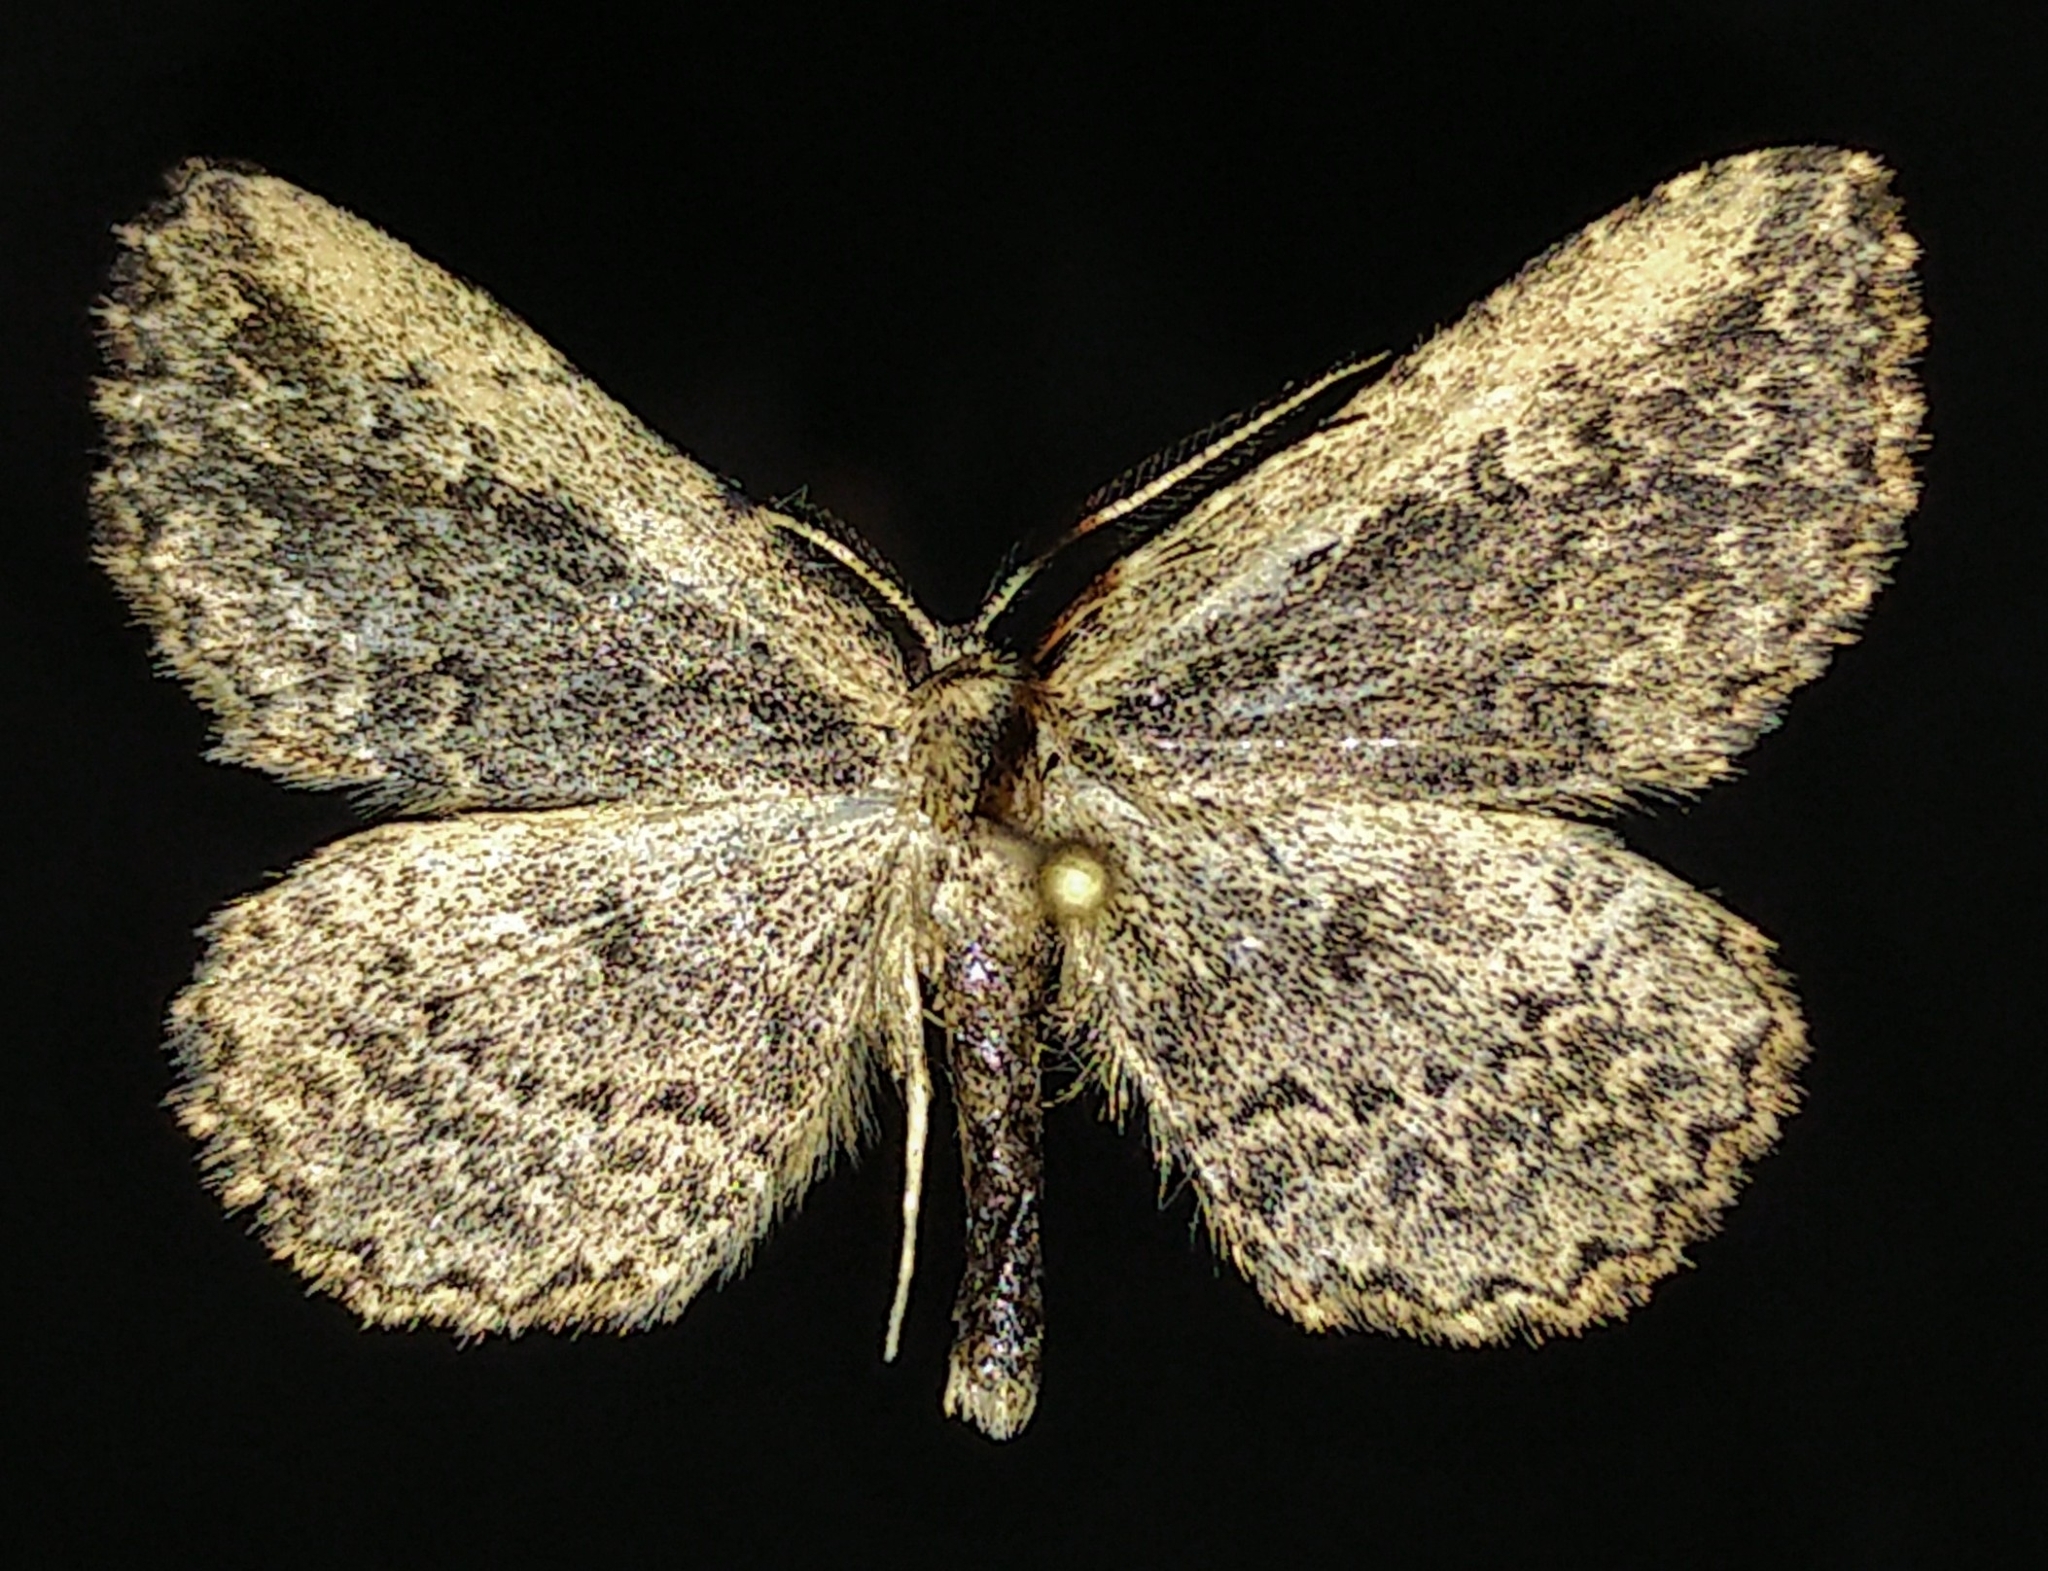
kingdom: Animalia
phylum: Arthropoda
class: Insecta
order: Lepidoptera
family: Erebidae
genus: Mycterophora
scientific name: Mycterophora inexplicata
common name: Pale-edged snout moth
